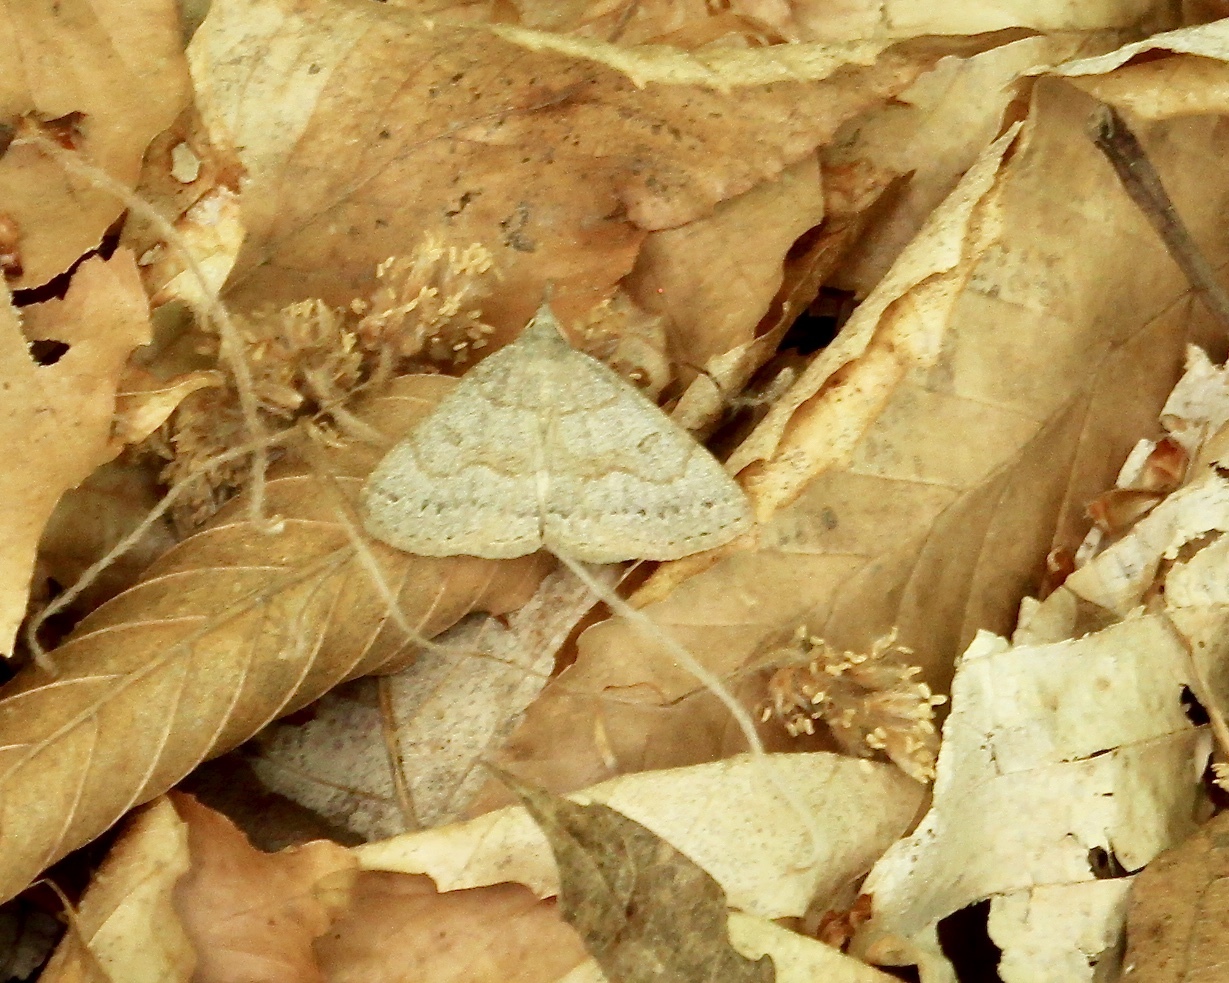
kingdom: Animalia
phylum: Arthropoda
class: Insecta
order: Lepidoptera
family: Erebidae
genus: Macrochilo
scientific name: Macrochilo morbidalis
